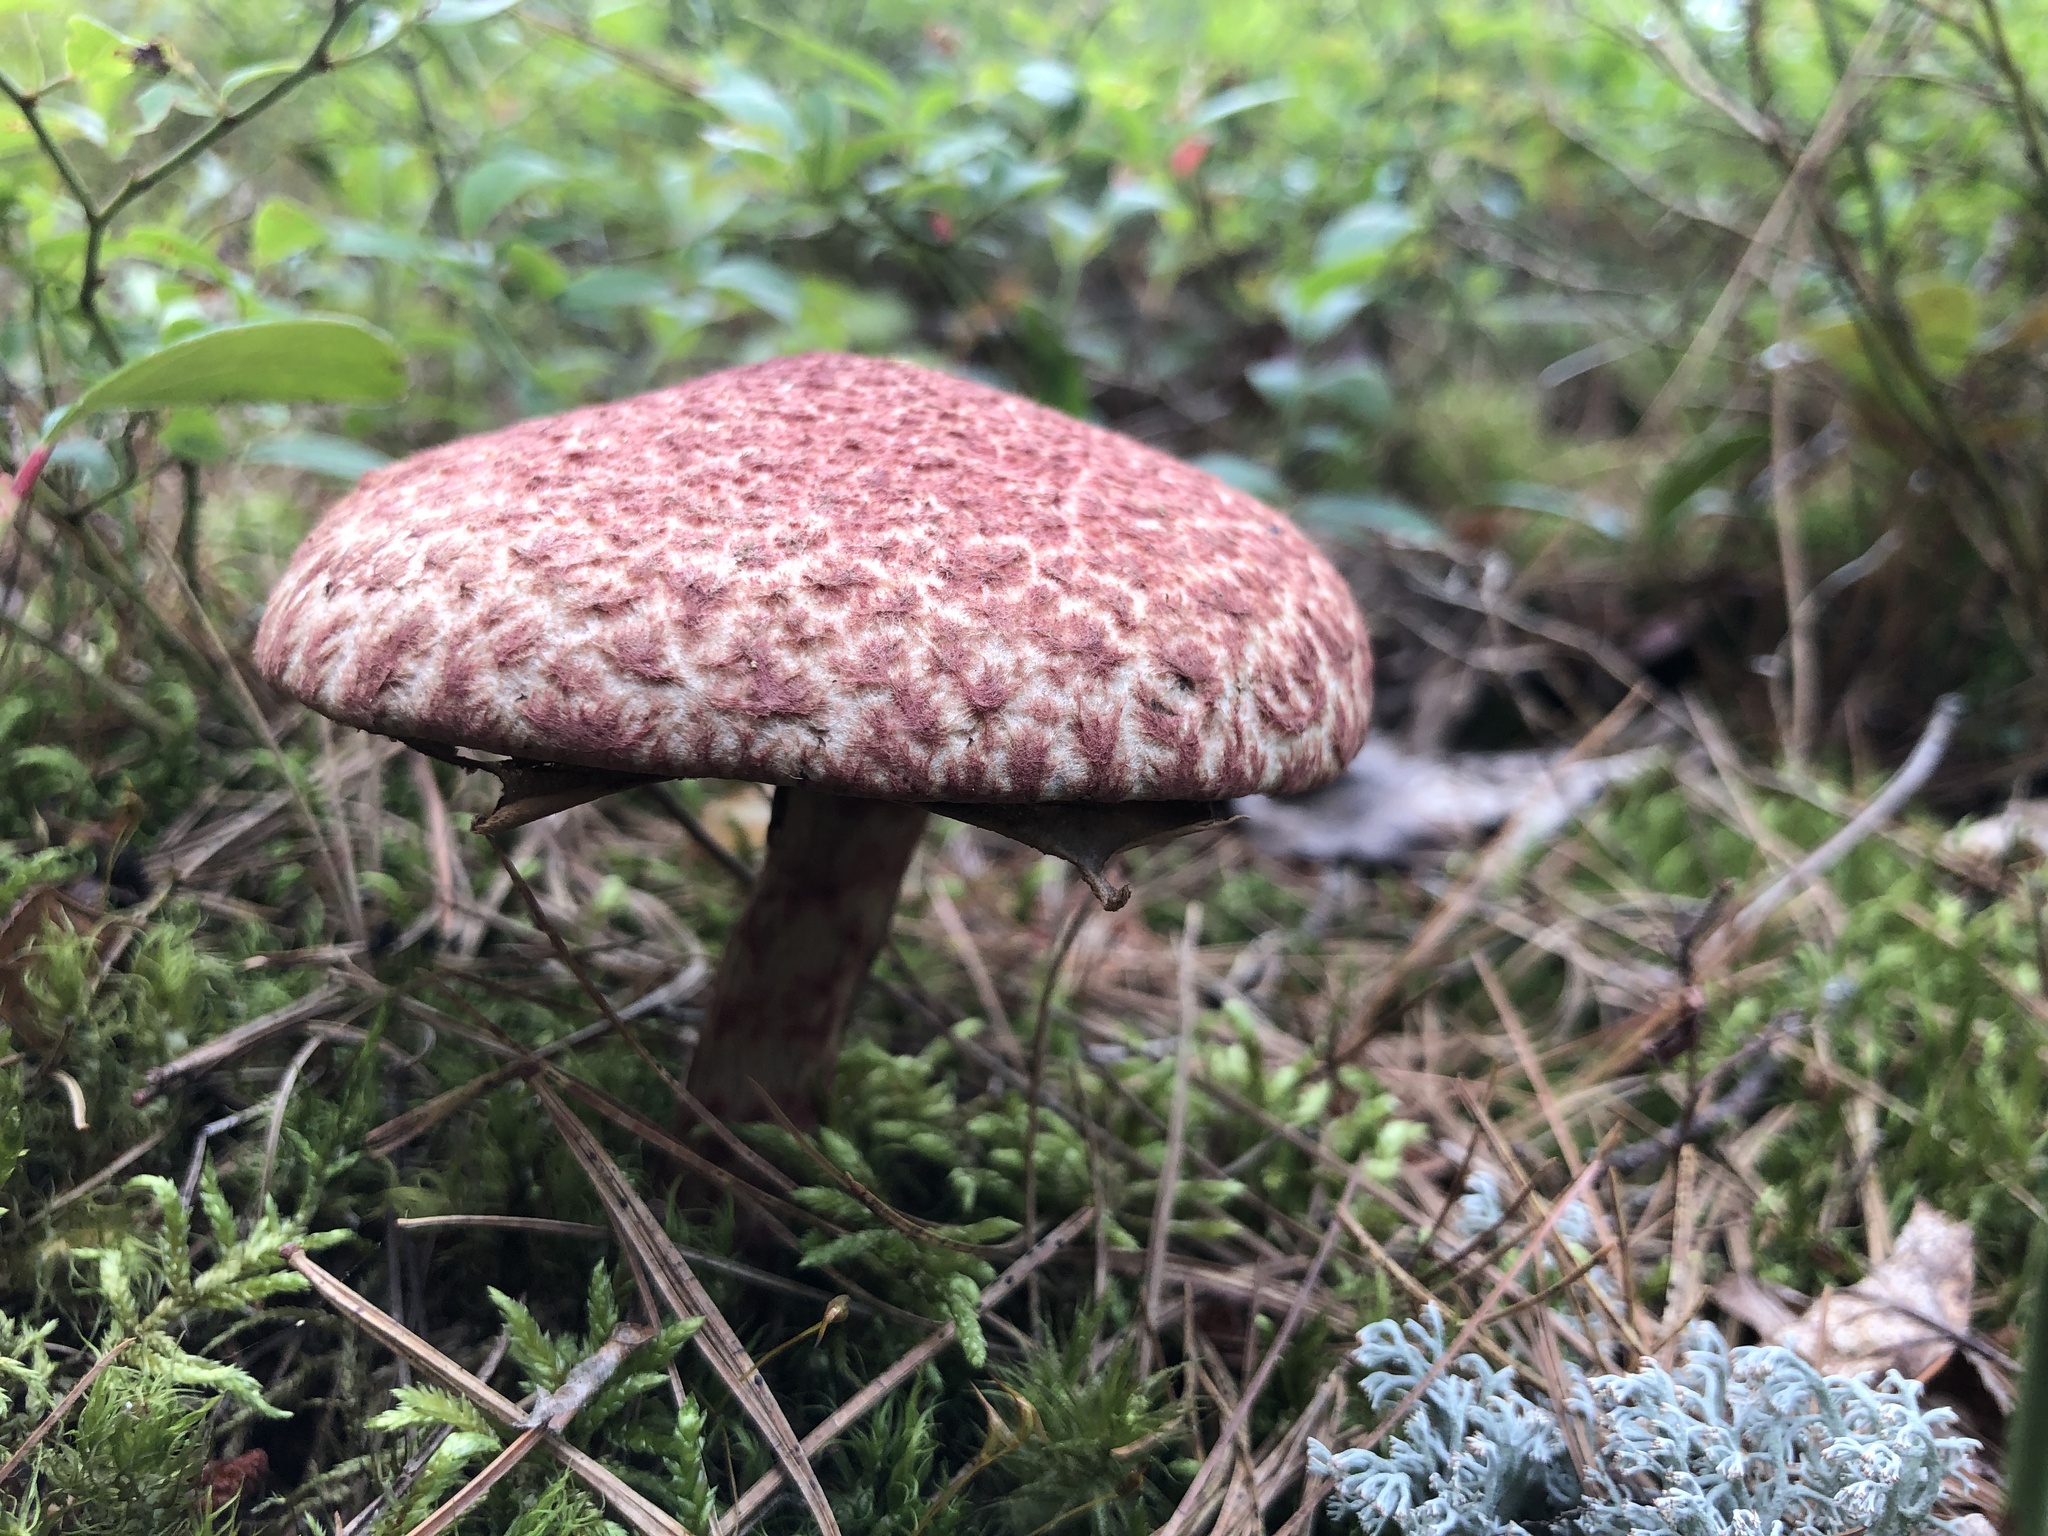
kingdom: Fungi
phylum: Basidiomycota
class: Agaricomycetes
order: Boletales
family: Suillaceae
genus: Suillus
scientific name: Suillus spraguei
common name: Painted suillus
